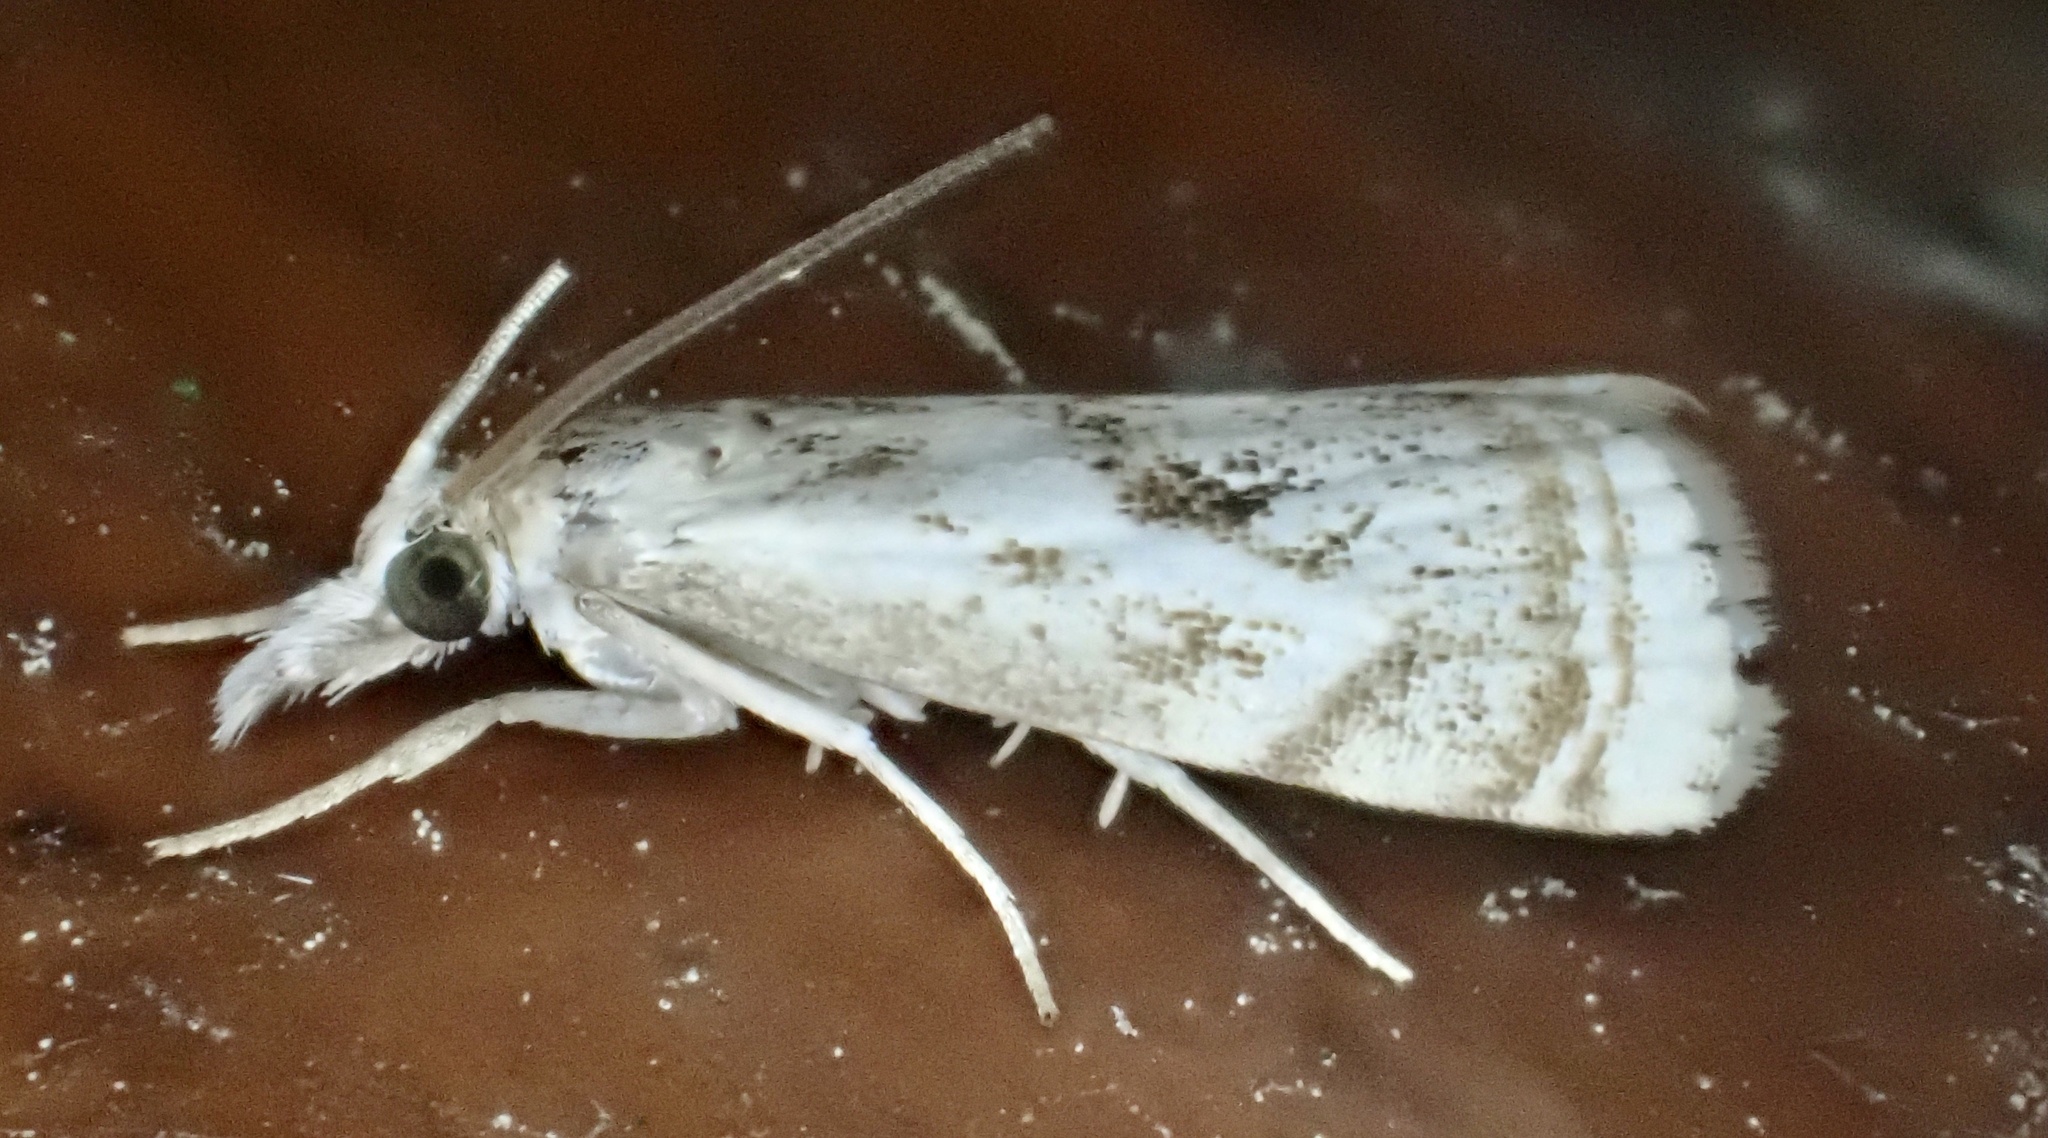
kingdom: Animalia
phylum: Arthropoda
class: Insecta
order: Lepidoptera
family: Crambidae
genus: Microcrambus
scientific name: Microcrambus elegans
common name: Elegant grass-veneer
